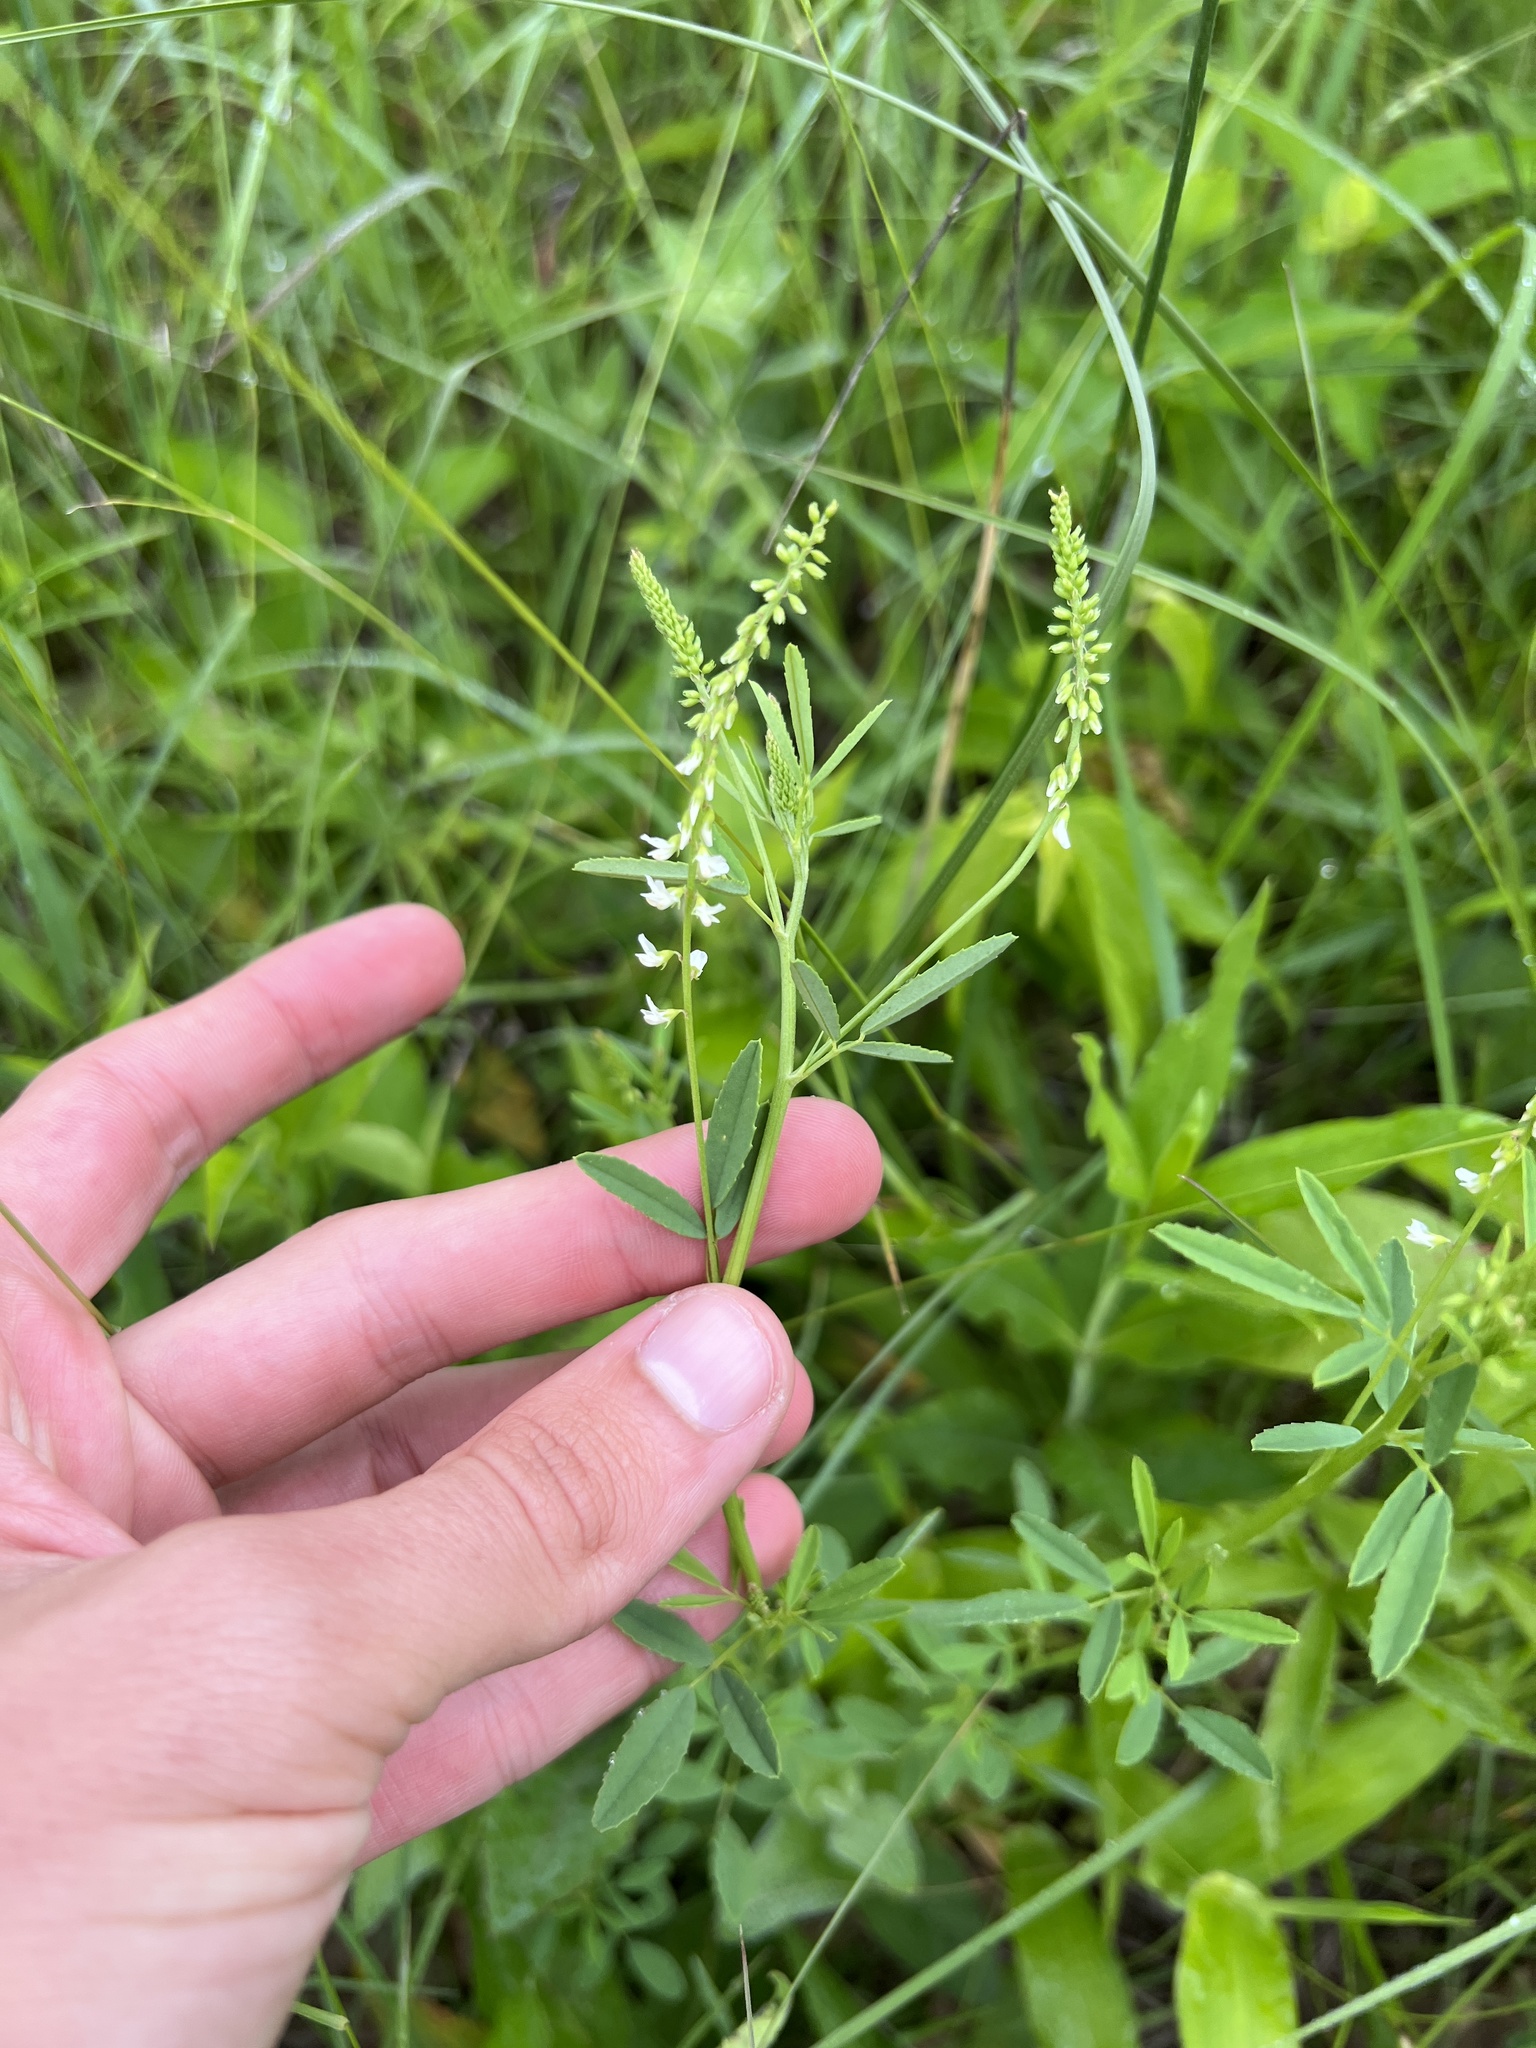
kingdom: Plantae
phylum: Tracheophyta
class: Magnoliopsida
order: Fabales
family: Fabaceae
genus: Melilotus
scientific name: Melilotus albus
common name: White melilot
